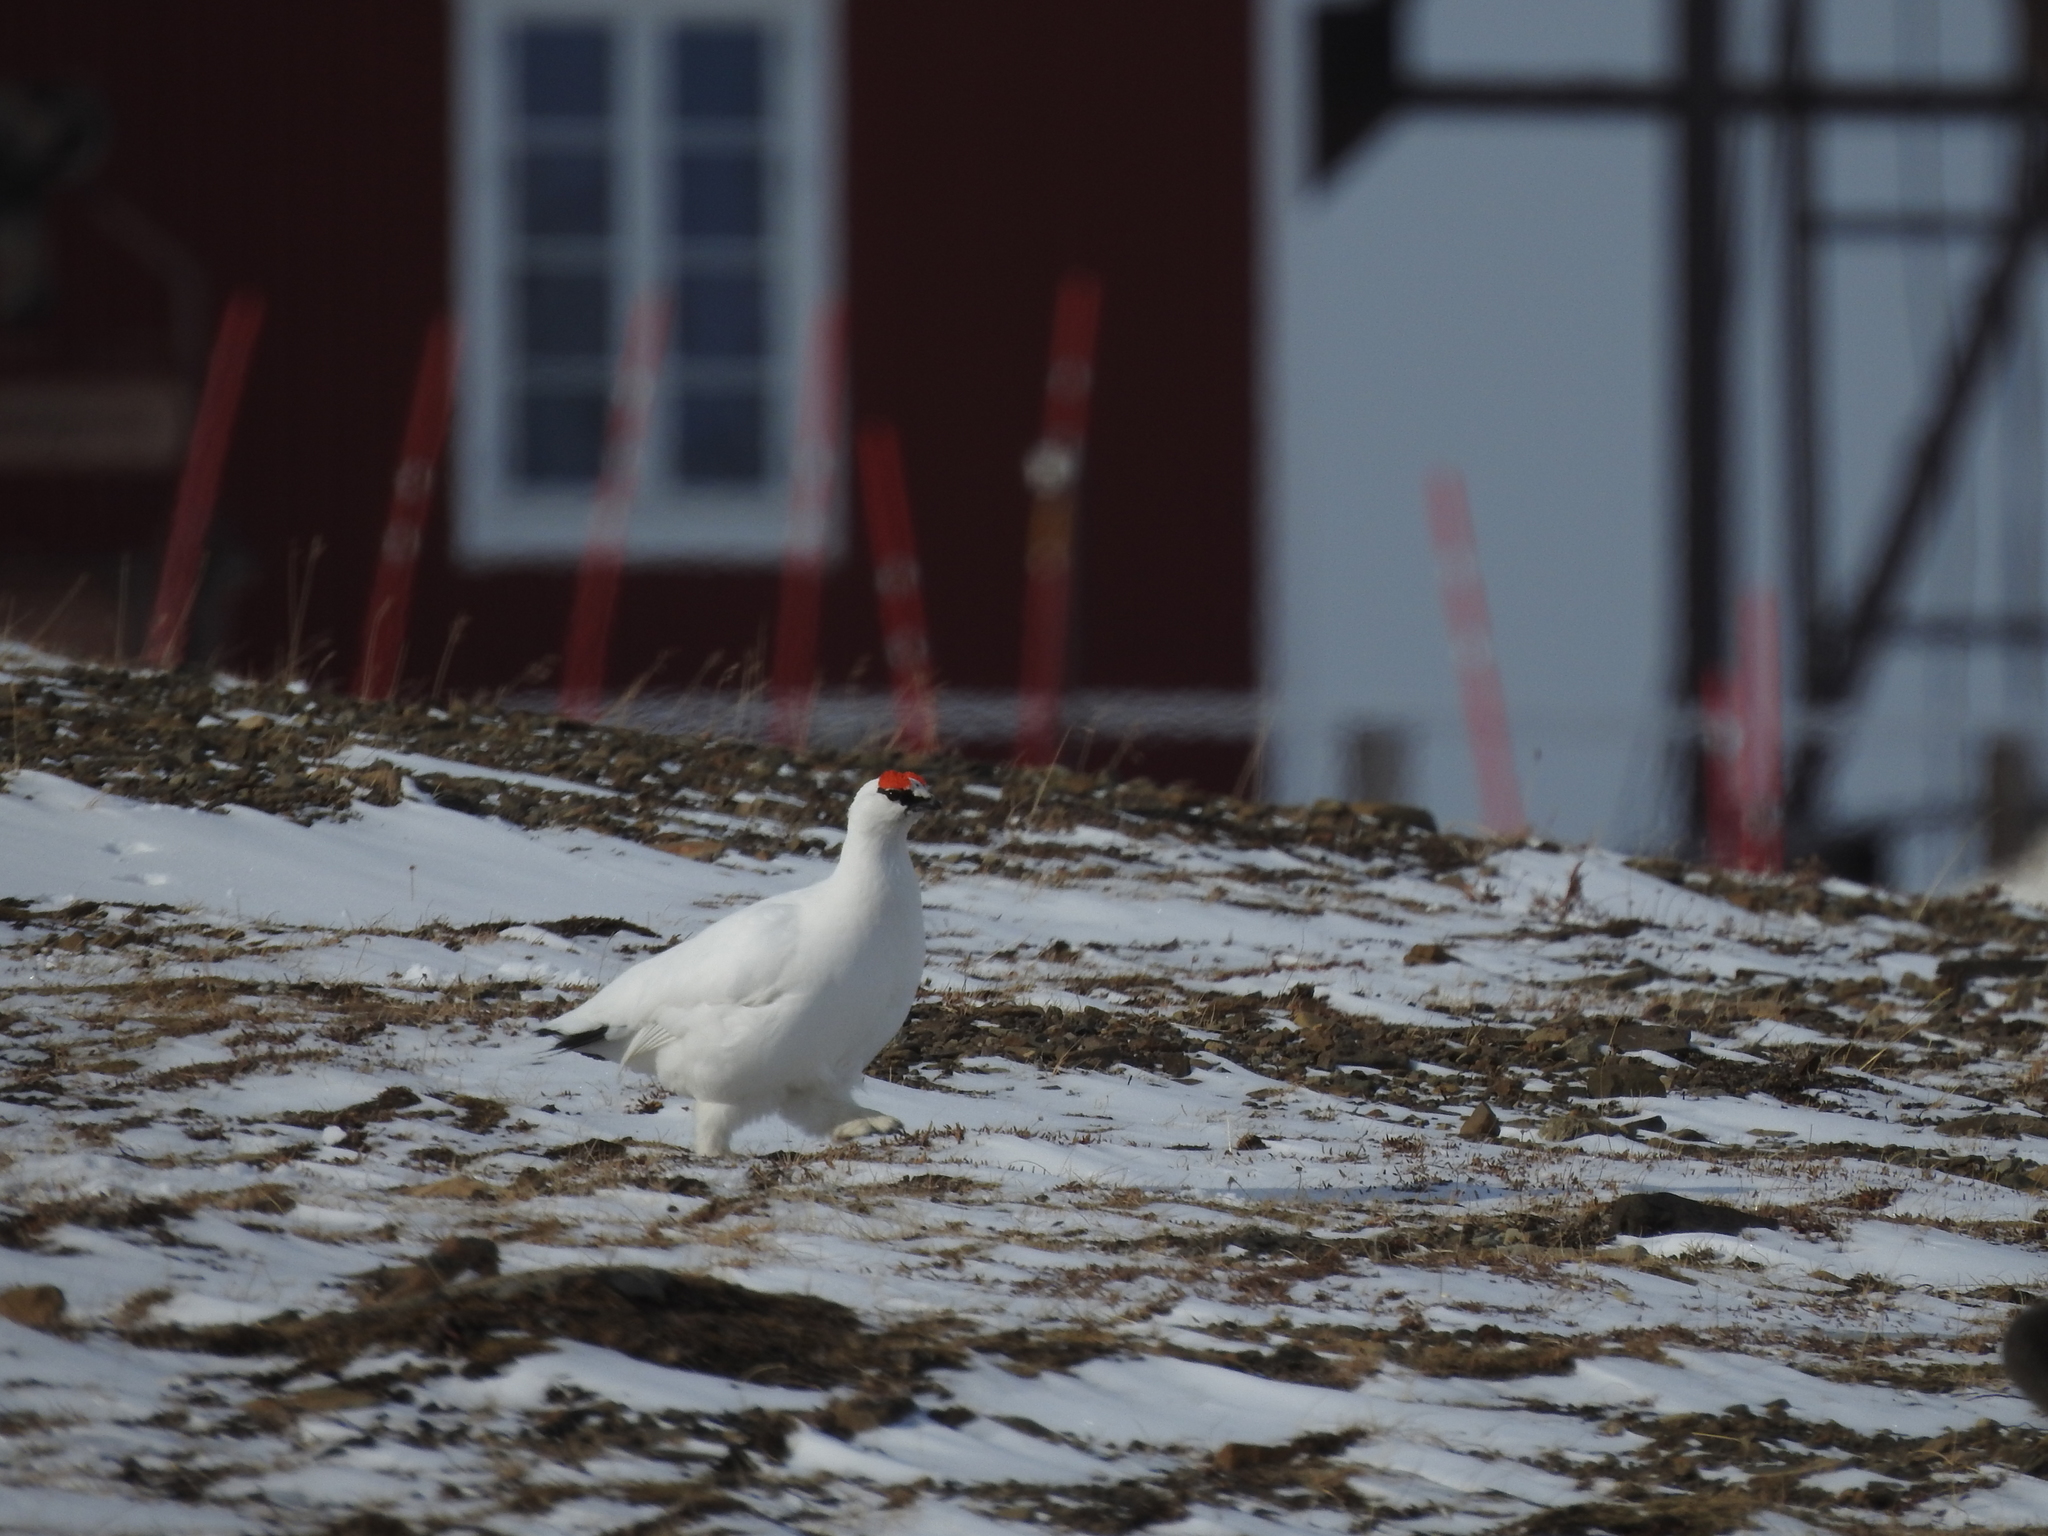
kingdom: Animalia
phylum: Chordata
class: Aves
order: Galliformes
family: Phasianidae
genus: Lagopus
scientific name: Lagopus muta
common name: Rock ptarmigan
